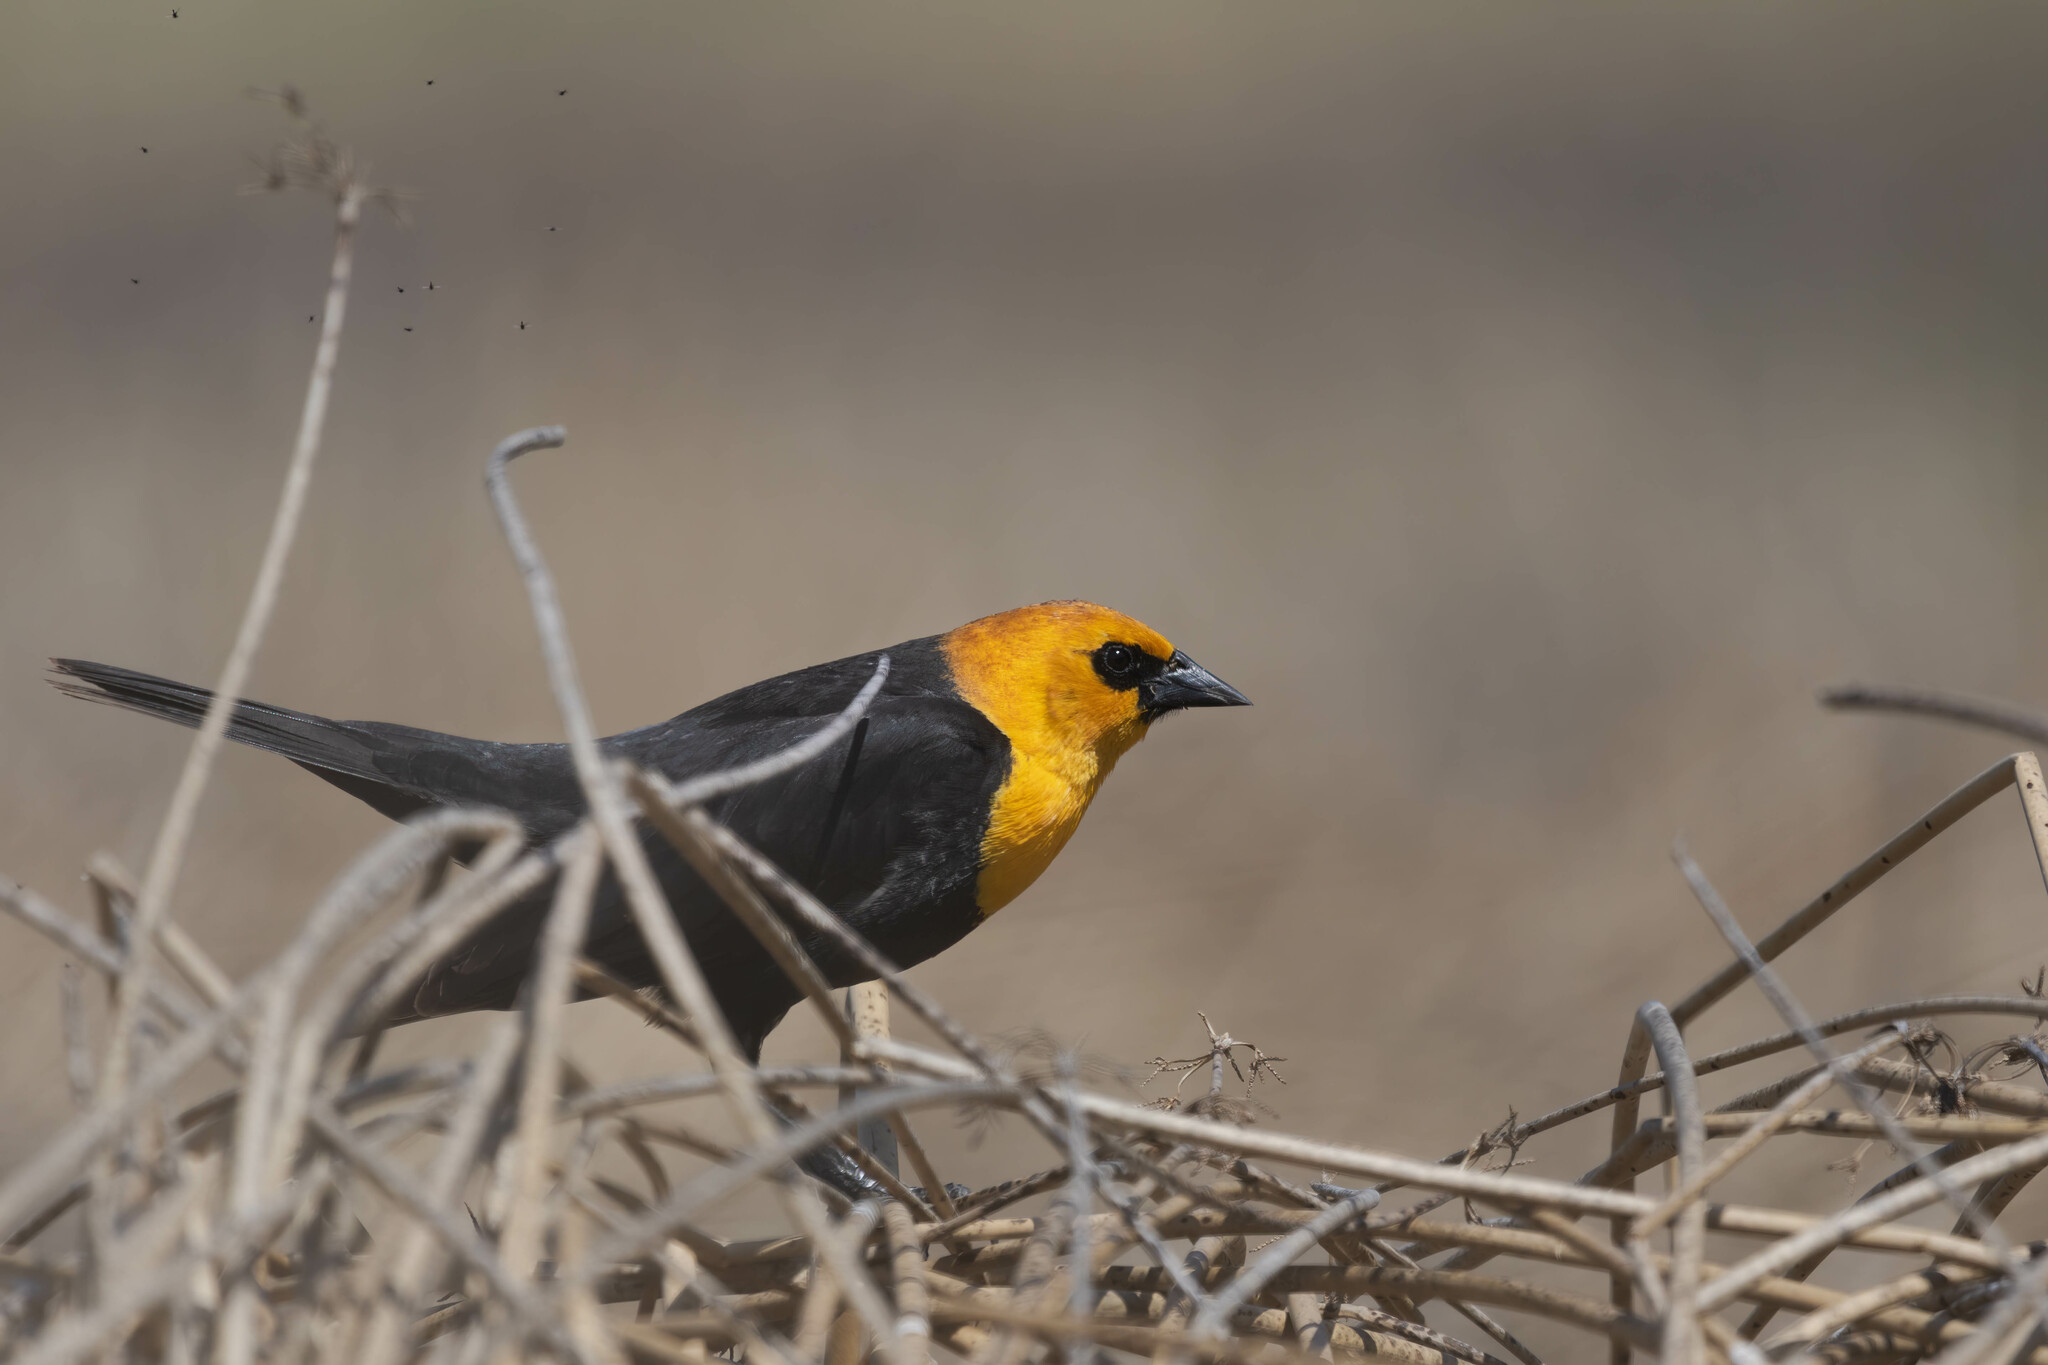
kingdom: Animalia
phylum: Chordata
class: Aves
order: Passeriformes
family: Icteridae
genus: Xanthocephalus
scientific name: Xanthocephalus xanthocephalus
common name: Yellow-headed blackbird
